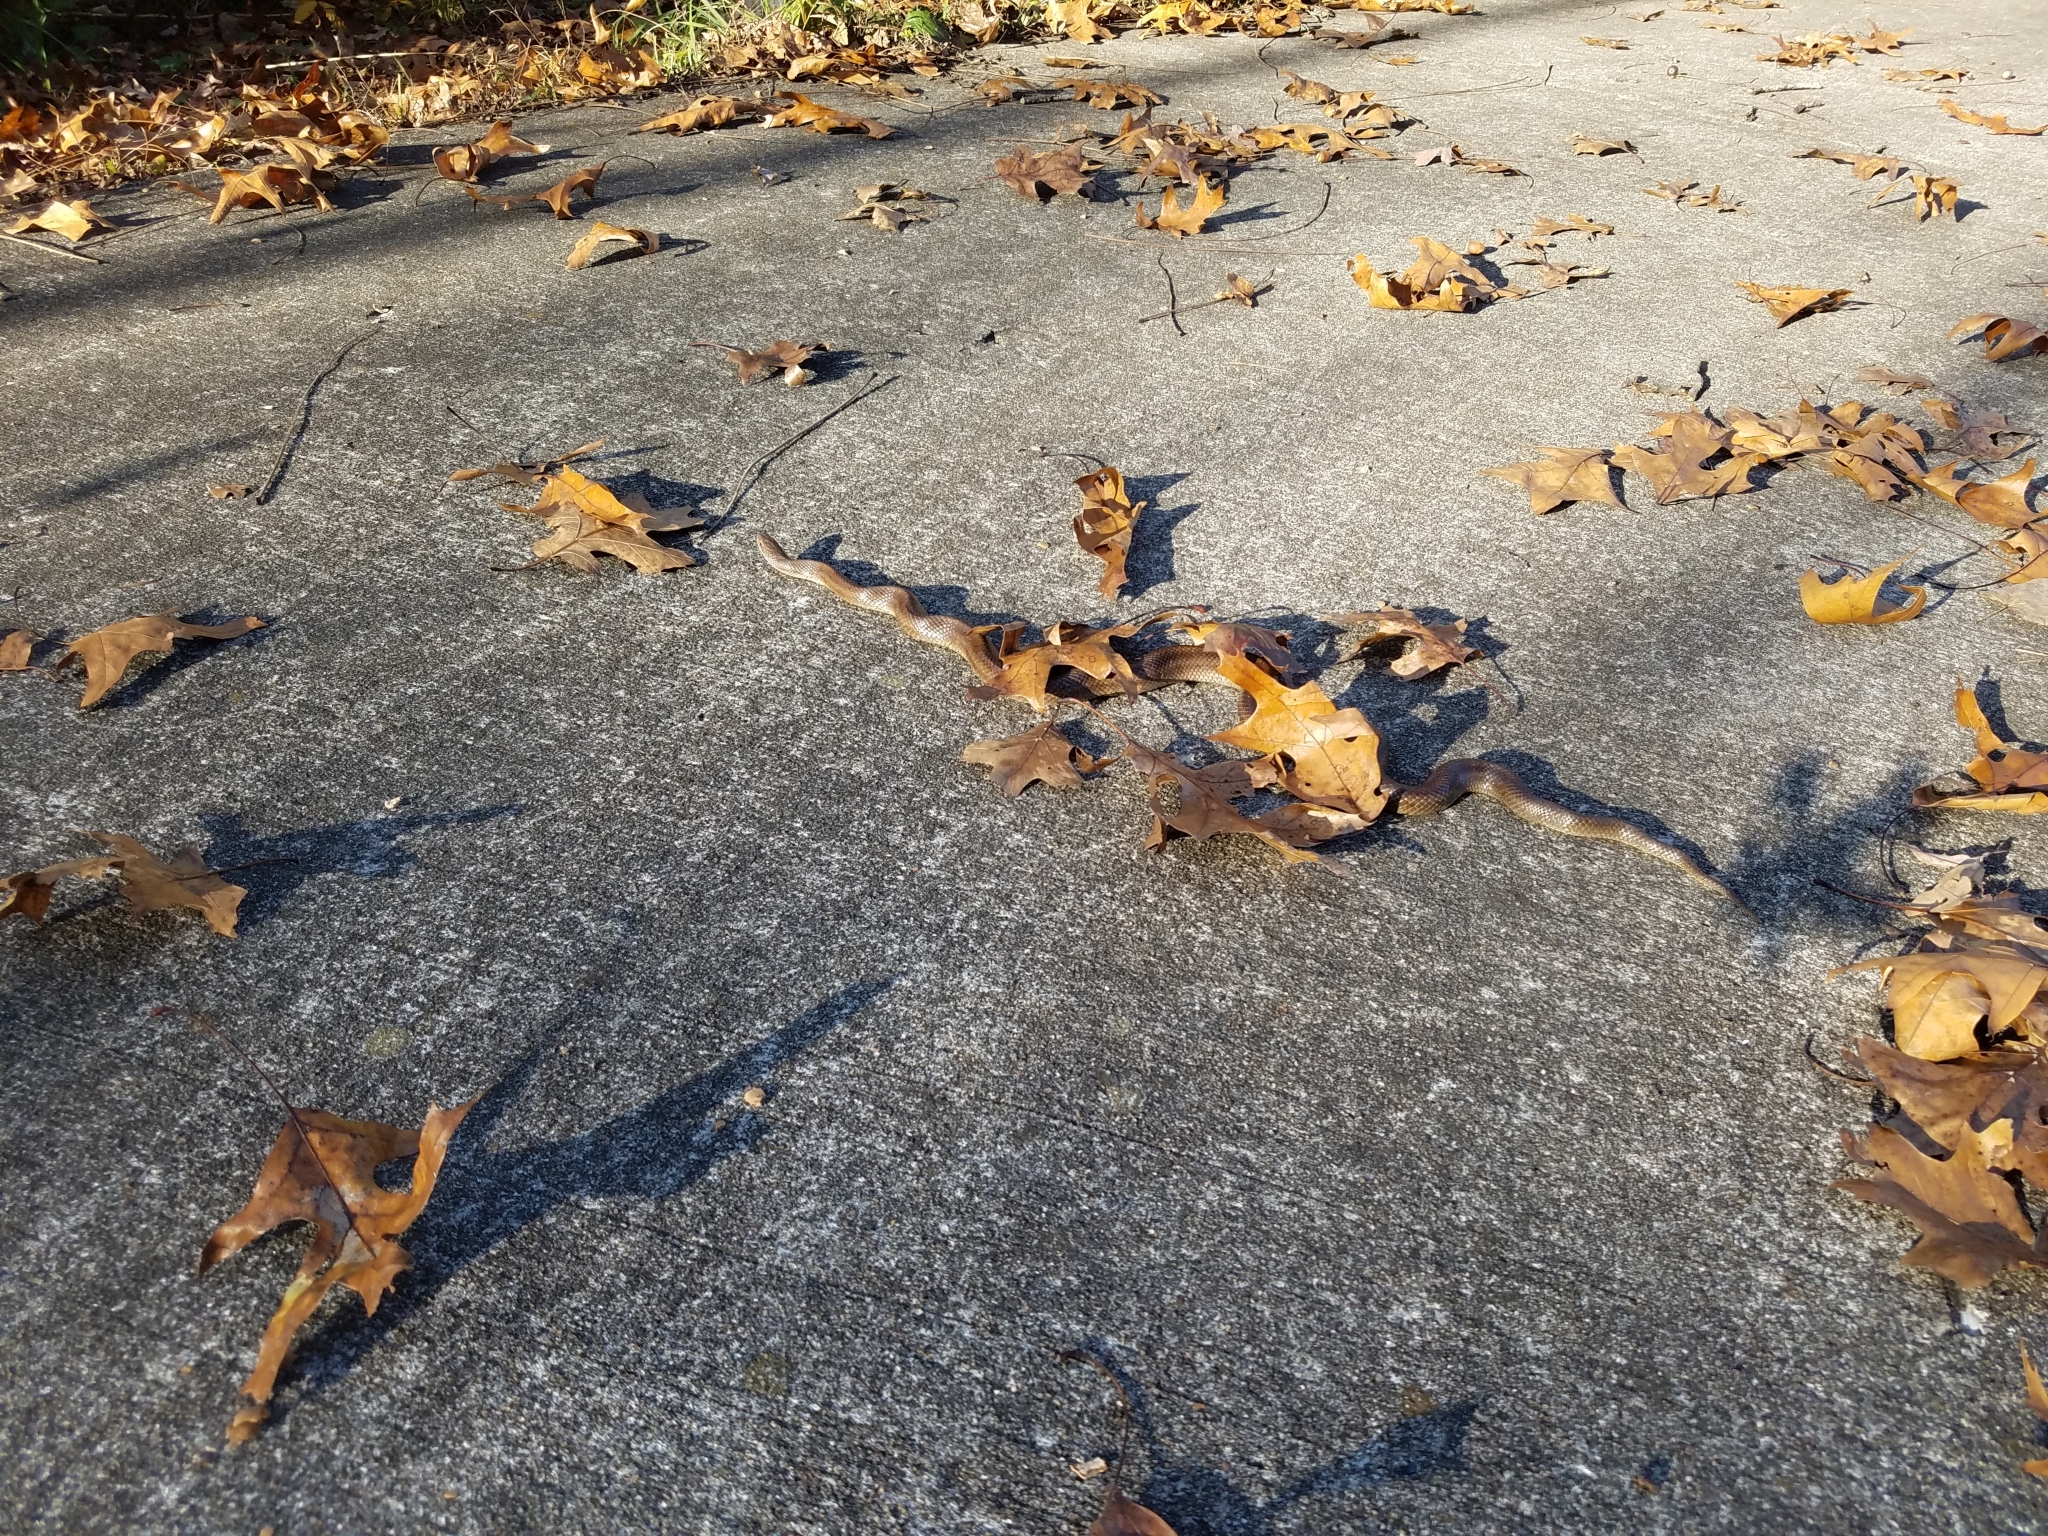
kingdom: Animalia
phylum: Chordata
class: Squamata
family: Colubridae
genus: Lampropeltis
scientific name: Lampropeltis calligaster
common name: Prairie kingsnake
